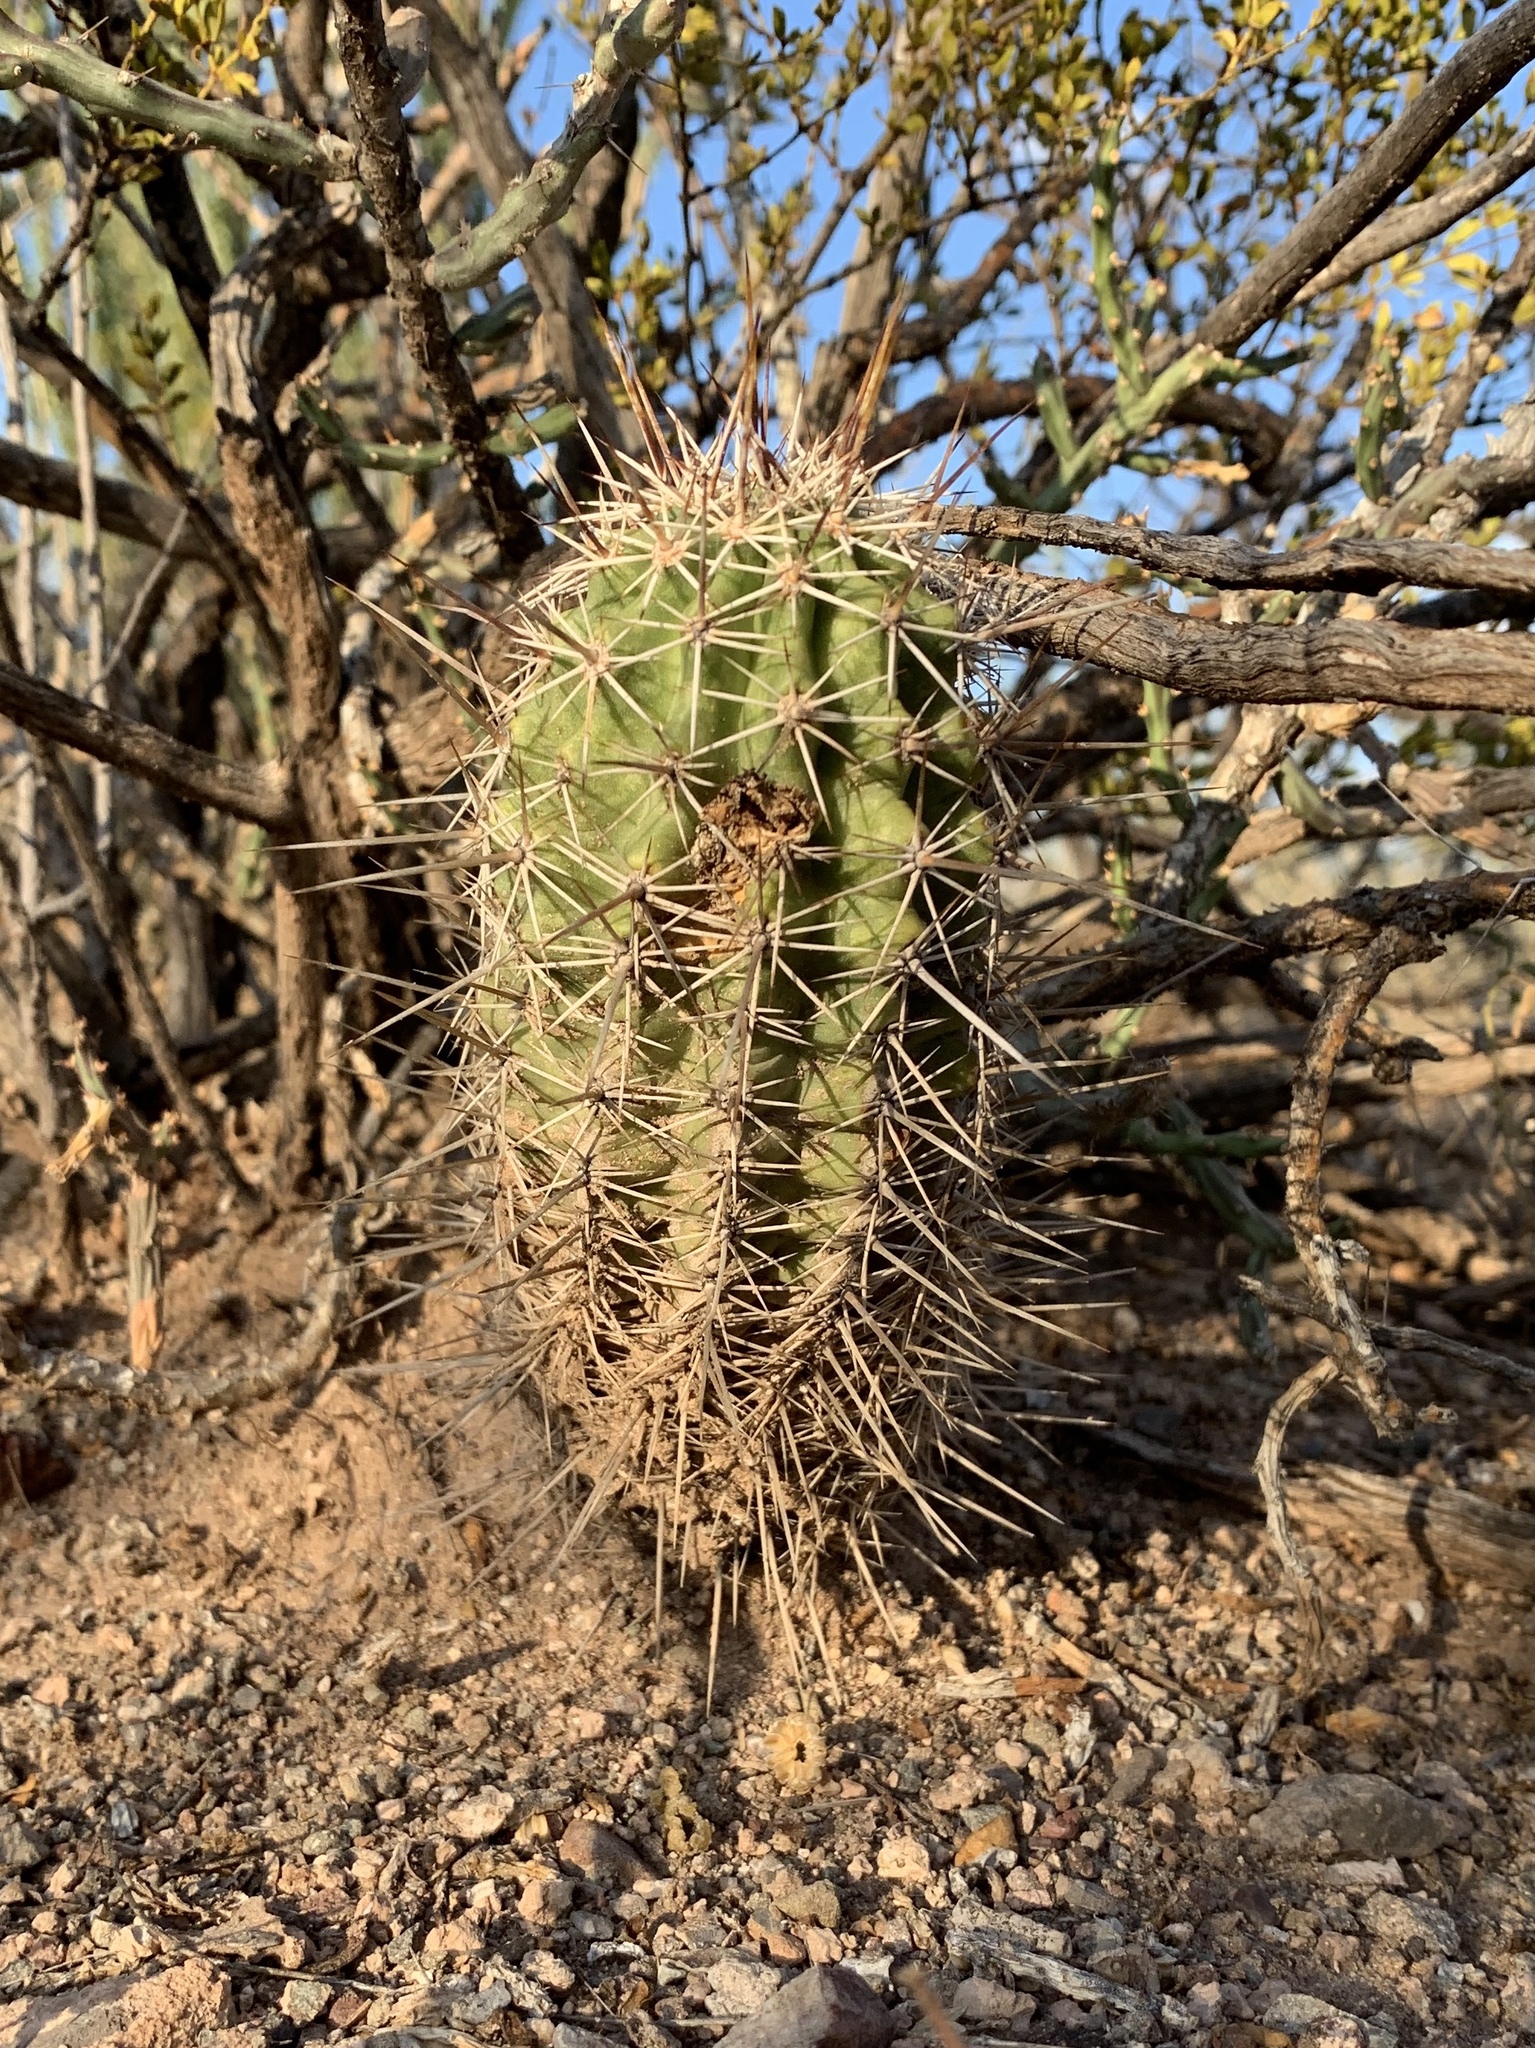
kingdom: Plantae
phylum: Tracheophyta
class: Magnoliopsida
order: Caryophyllales
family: Cactaceae
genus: Echinocereus
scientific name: Echinocereus fasciculatus
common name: Bundle hedgehog
